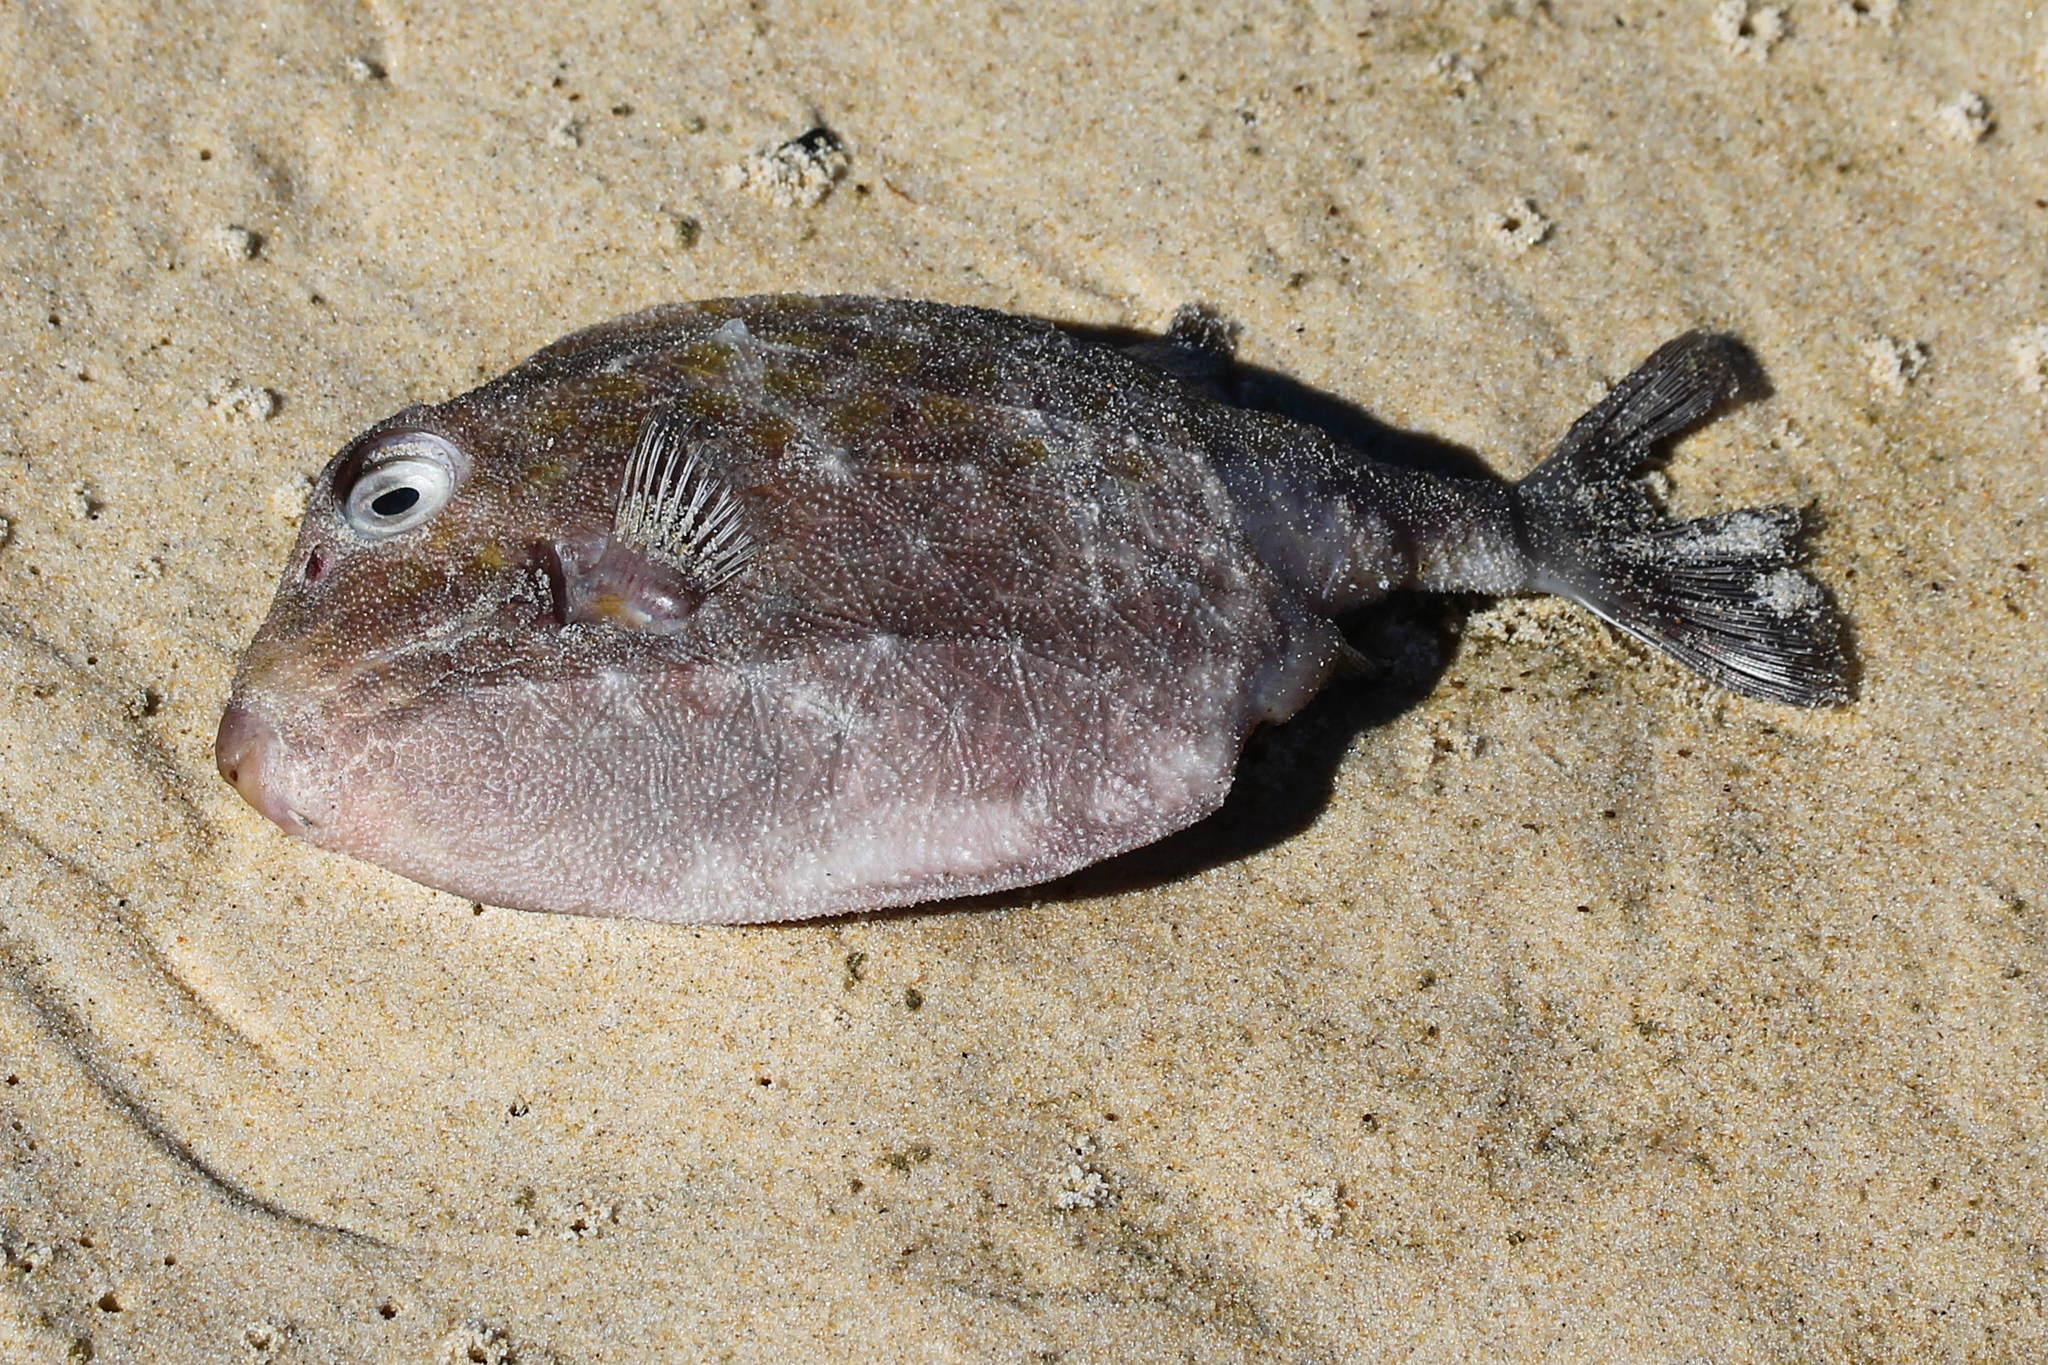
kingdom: Animalia
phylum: Chordata
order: Tetraodontiformes
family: Aracanidae
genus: Anoplocapros
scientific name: Anoplocapros inermis
